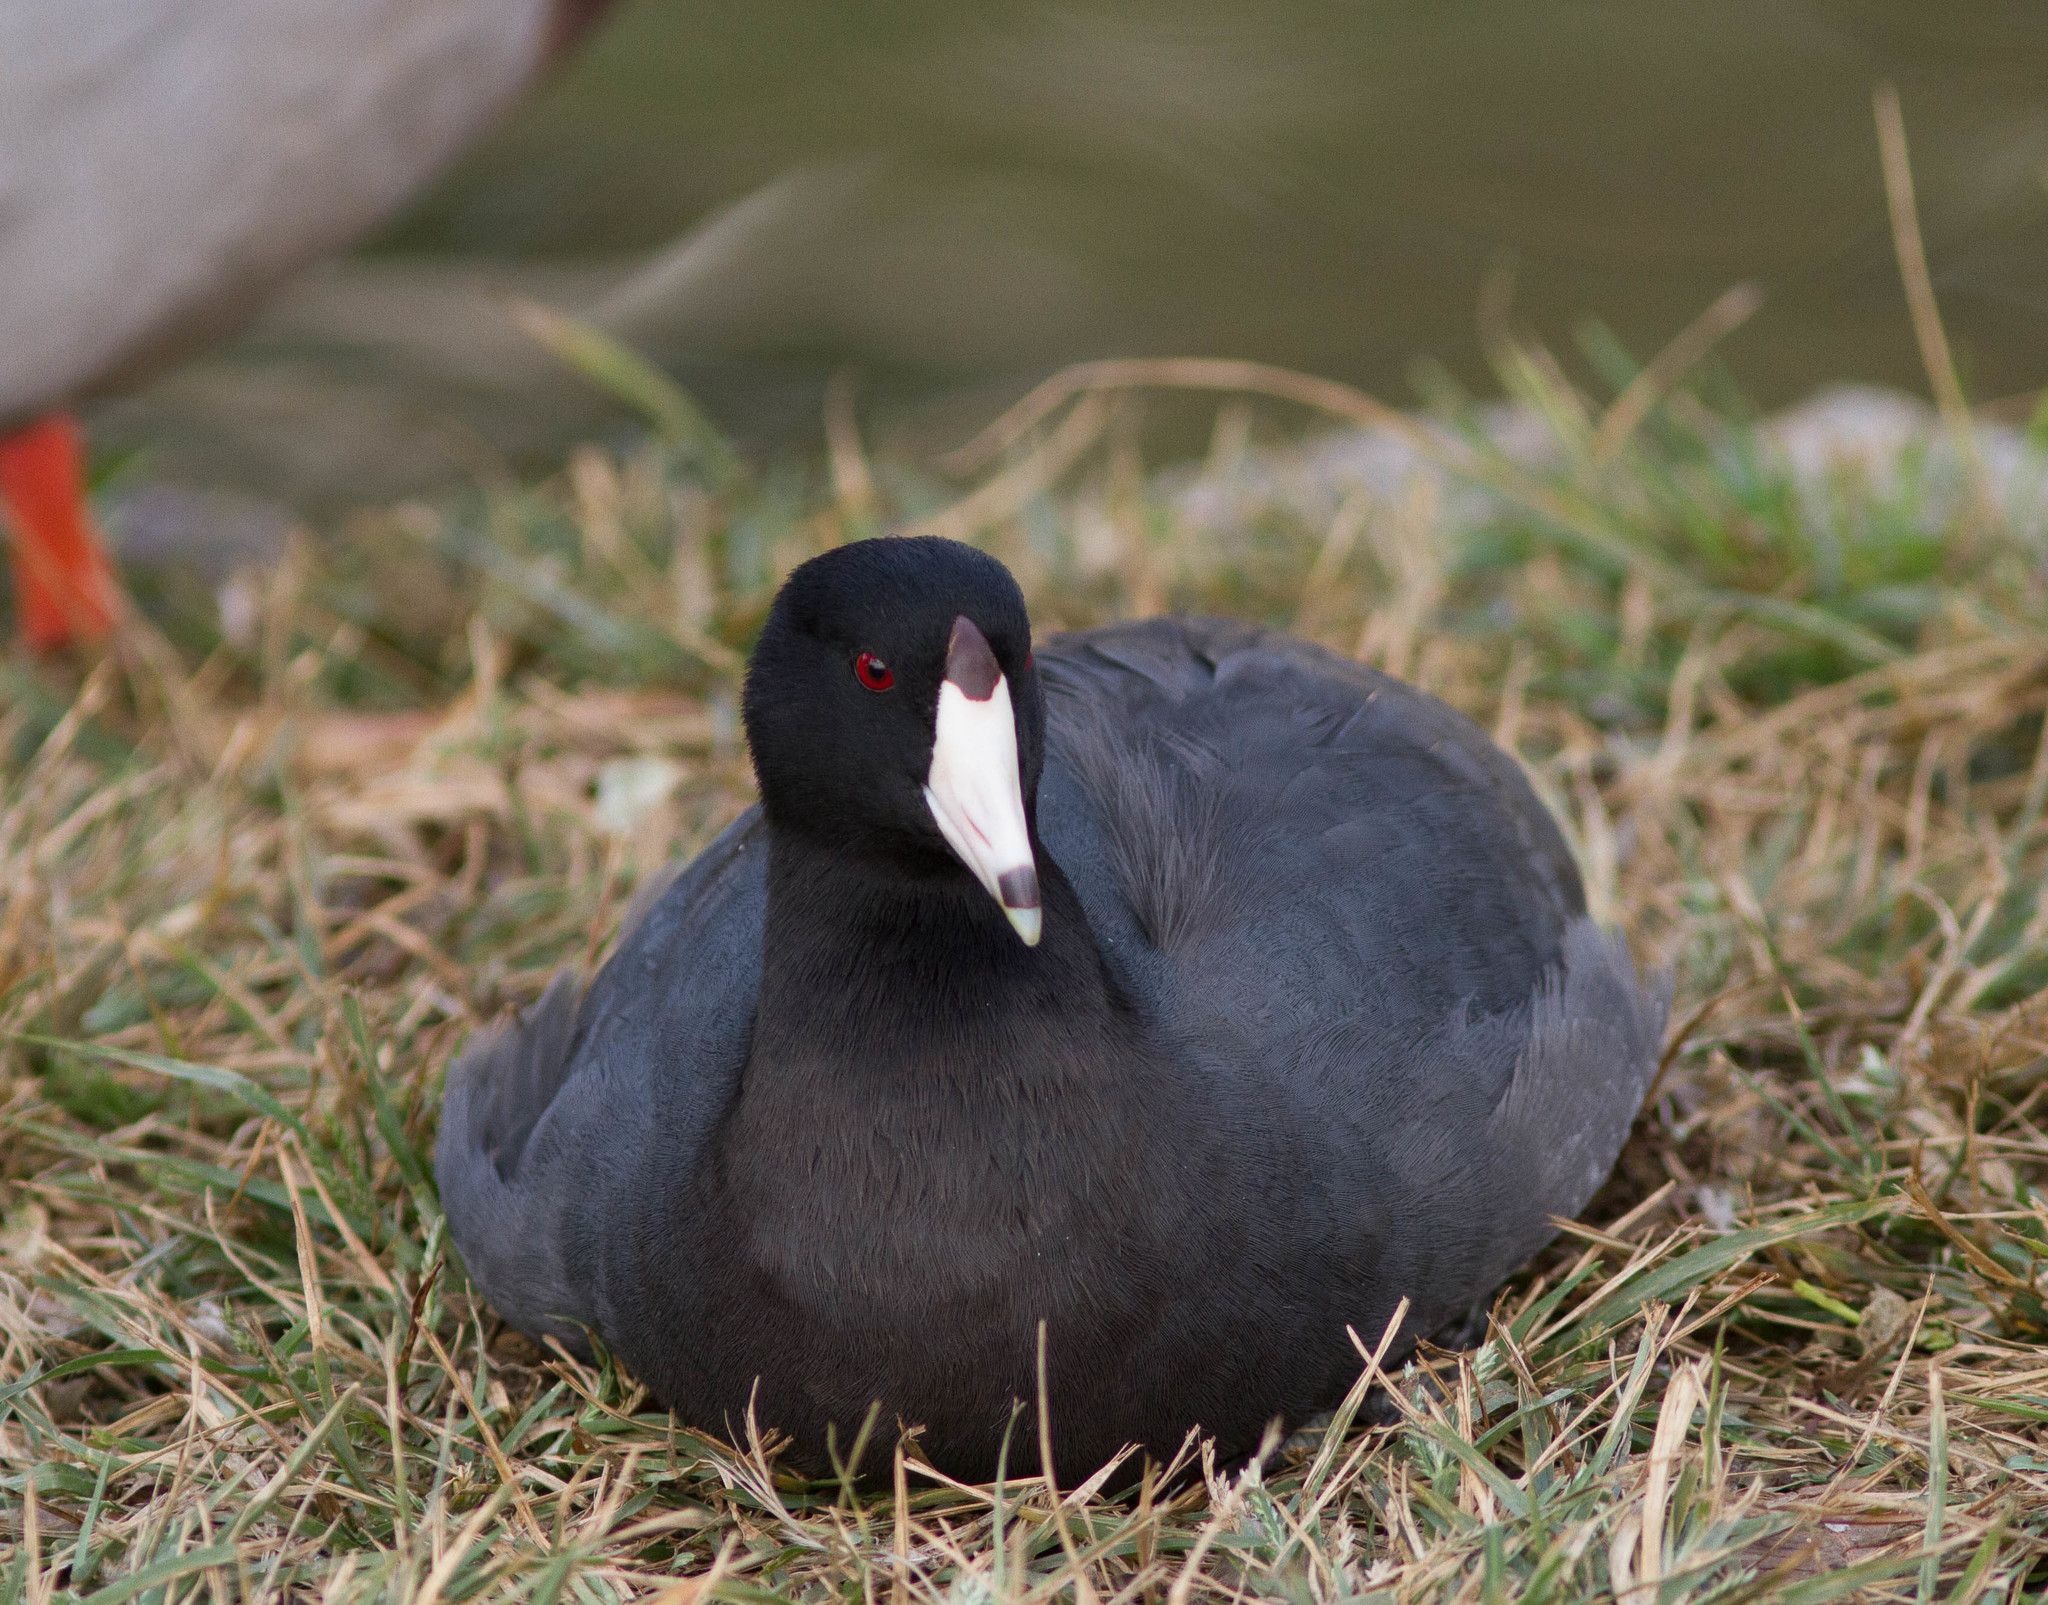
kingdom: Animalia
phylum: Chordata
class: Aves
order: Gruiformes
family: Rallidae
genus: Fulica
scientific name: Fulica americana
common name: American coot
